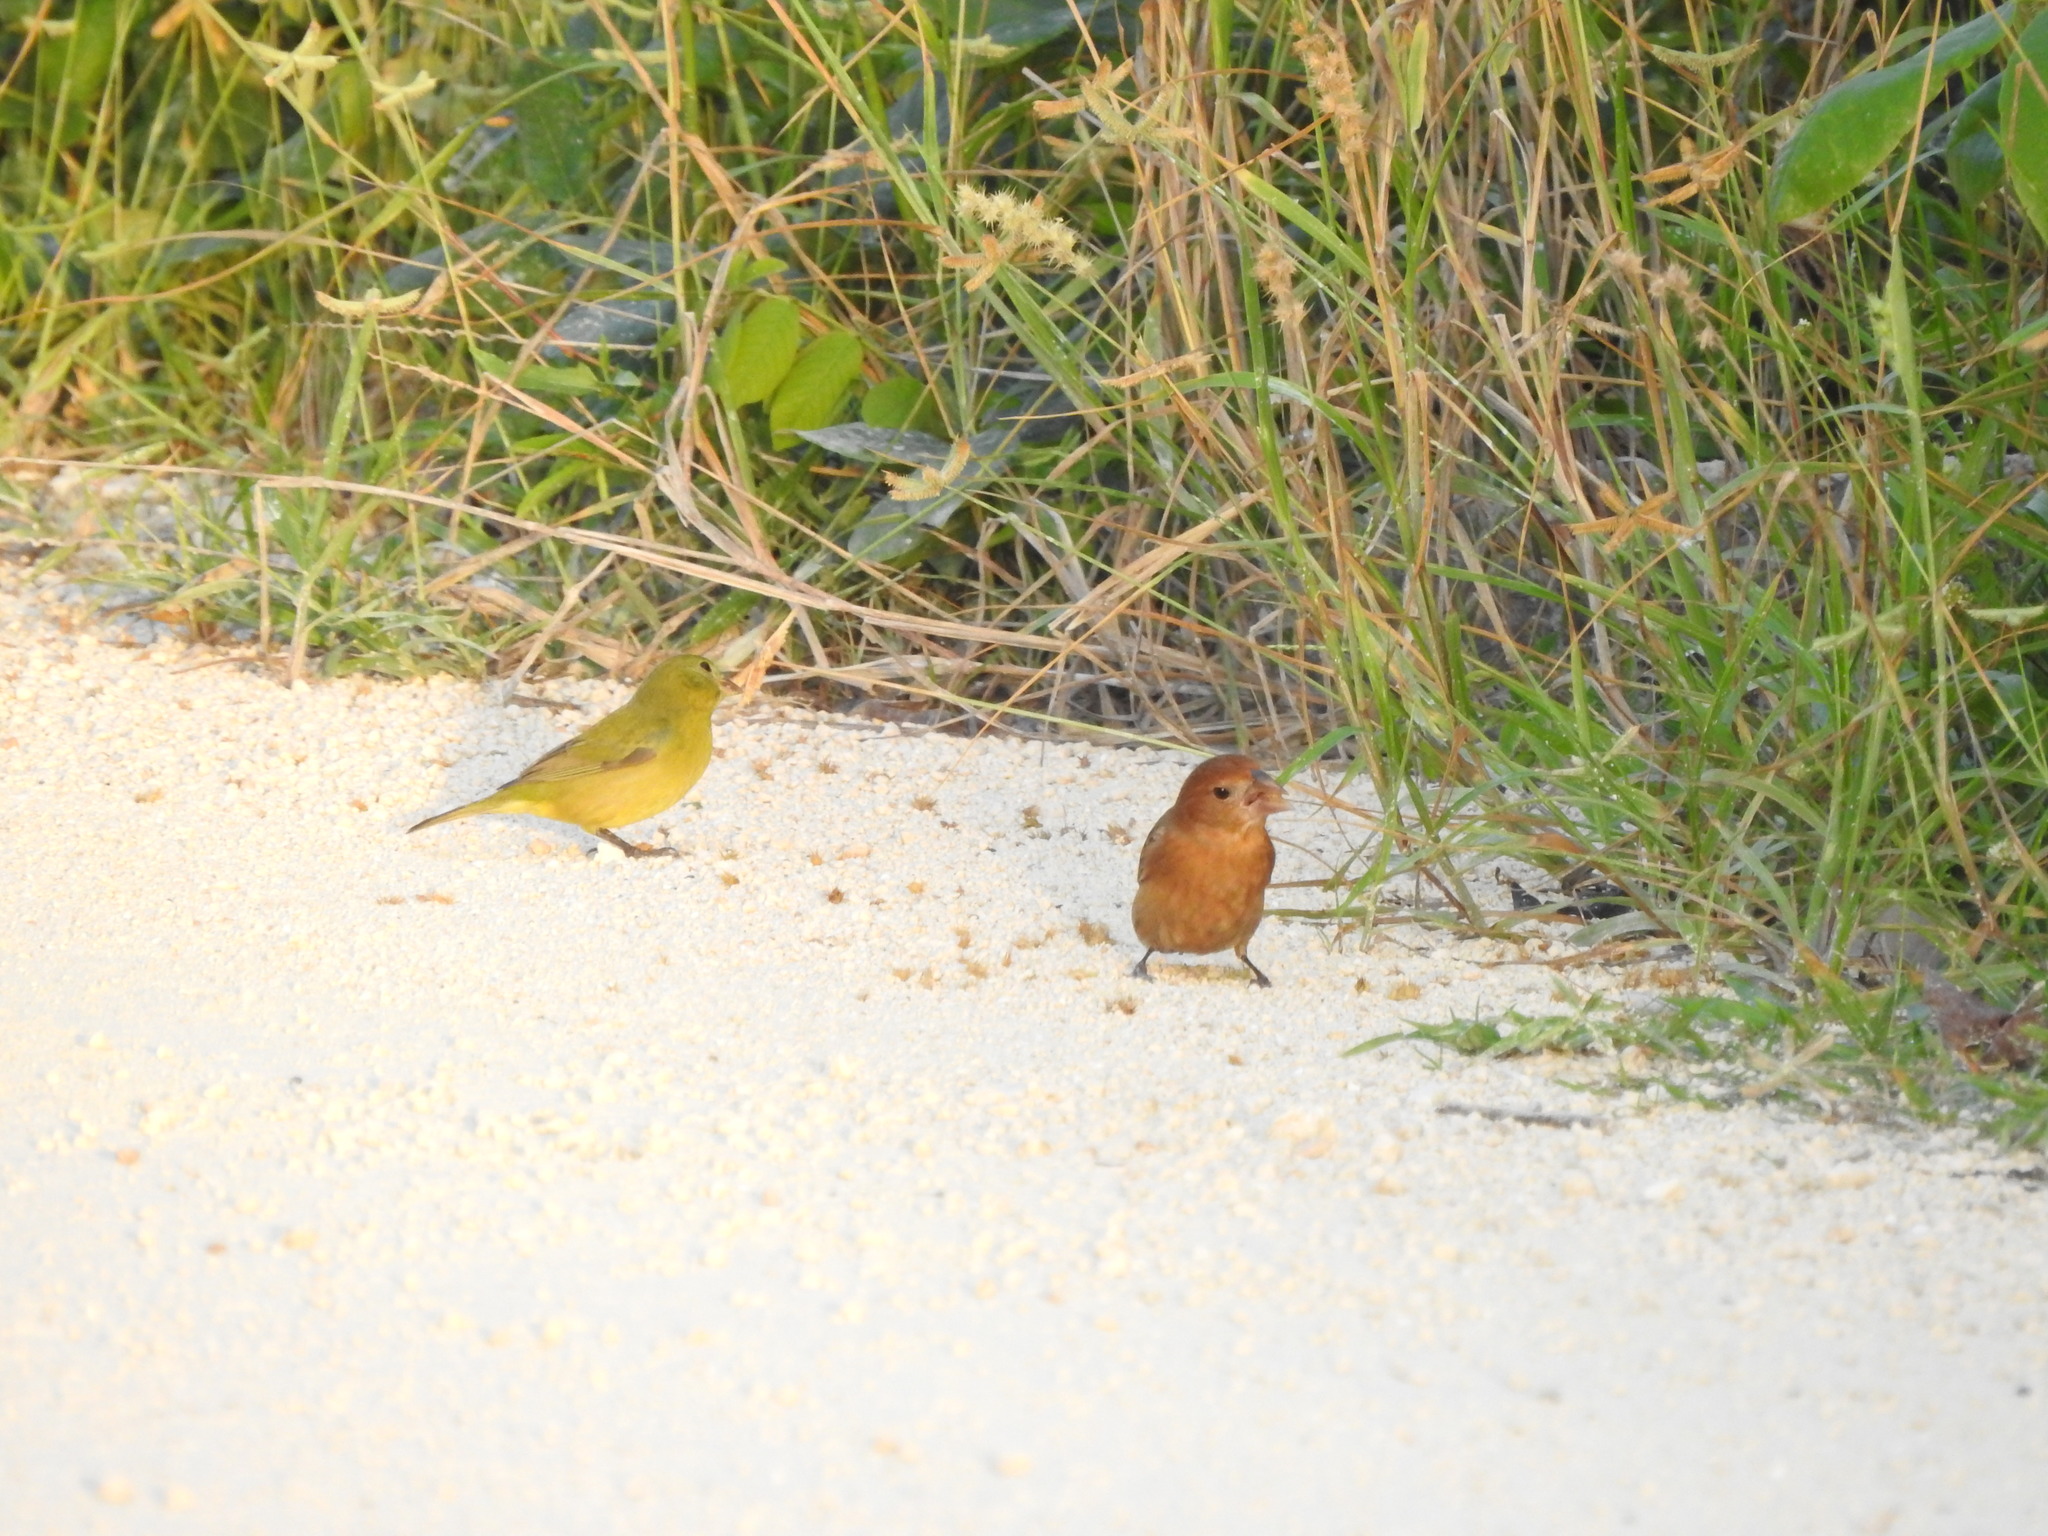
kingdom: Animalia
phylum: Chordata
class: Aves
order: Passeriformes
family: Cardinalidae
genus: Passerina
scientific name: Passerina ciris
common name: Painted bunting
